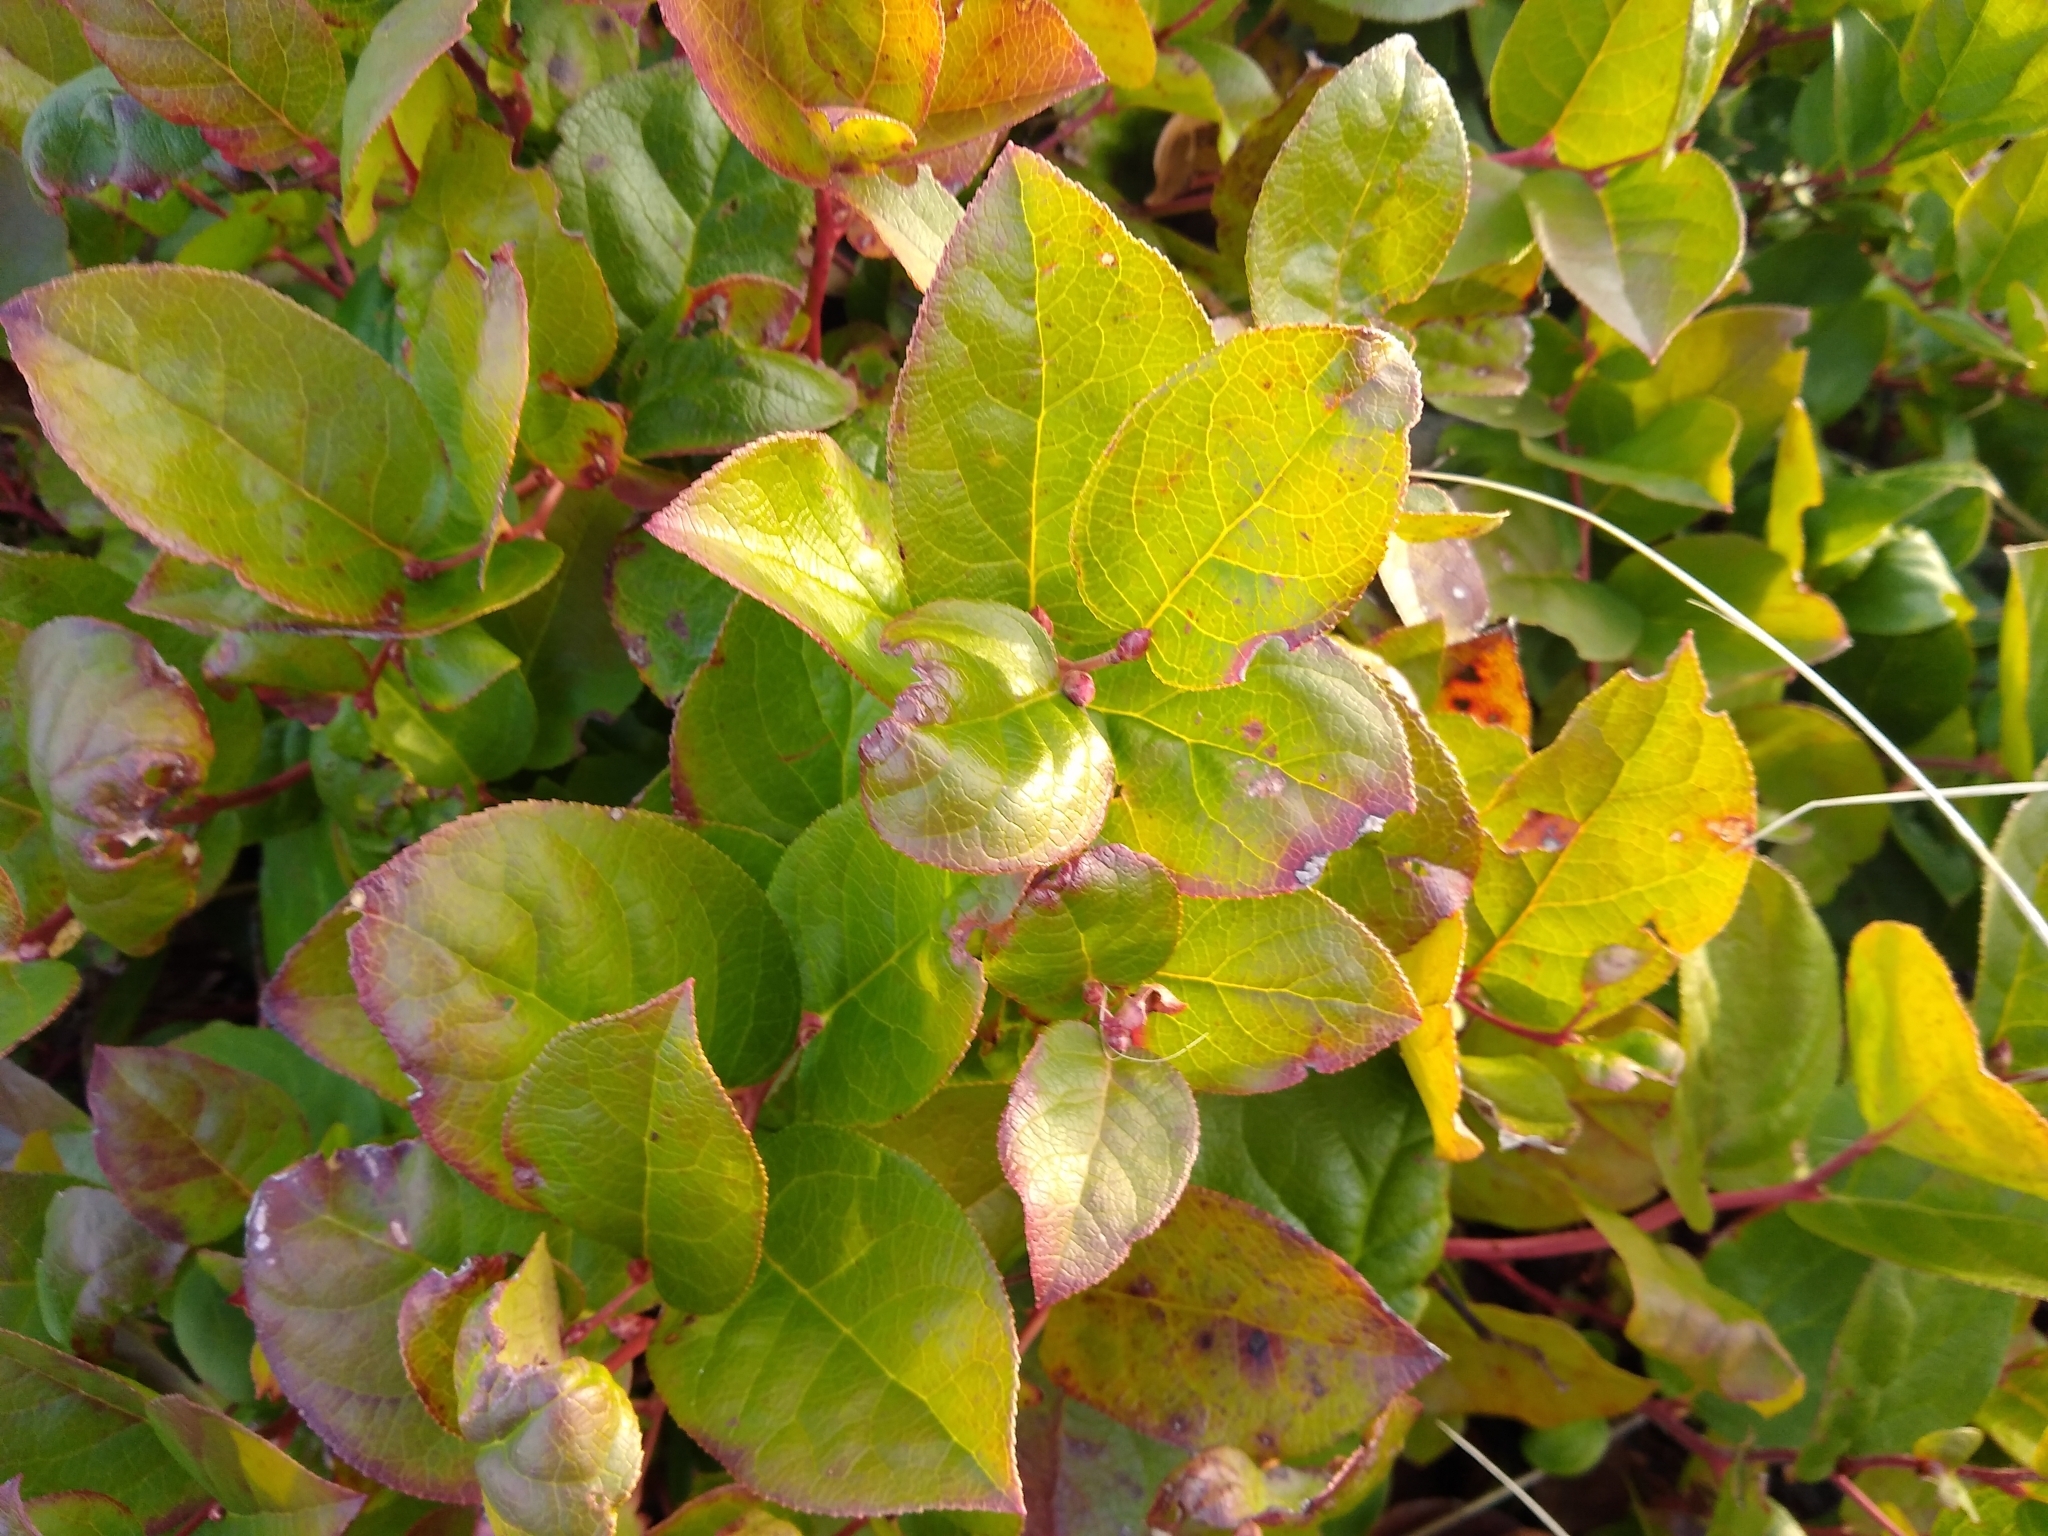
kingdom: Plantae
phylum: Tracheophyta
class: Magnoliopsida
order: Ericales
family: Ericaceae
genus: Gaultheria
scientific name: Gaultheria shallon
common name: Shallon
